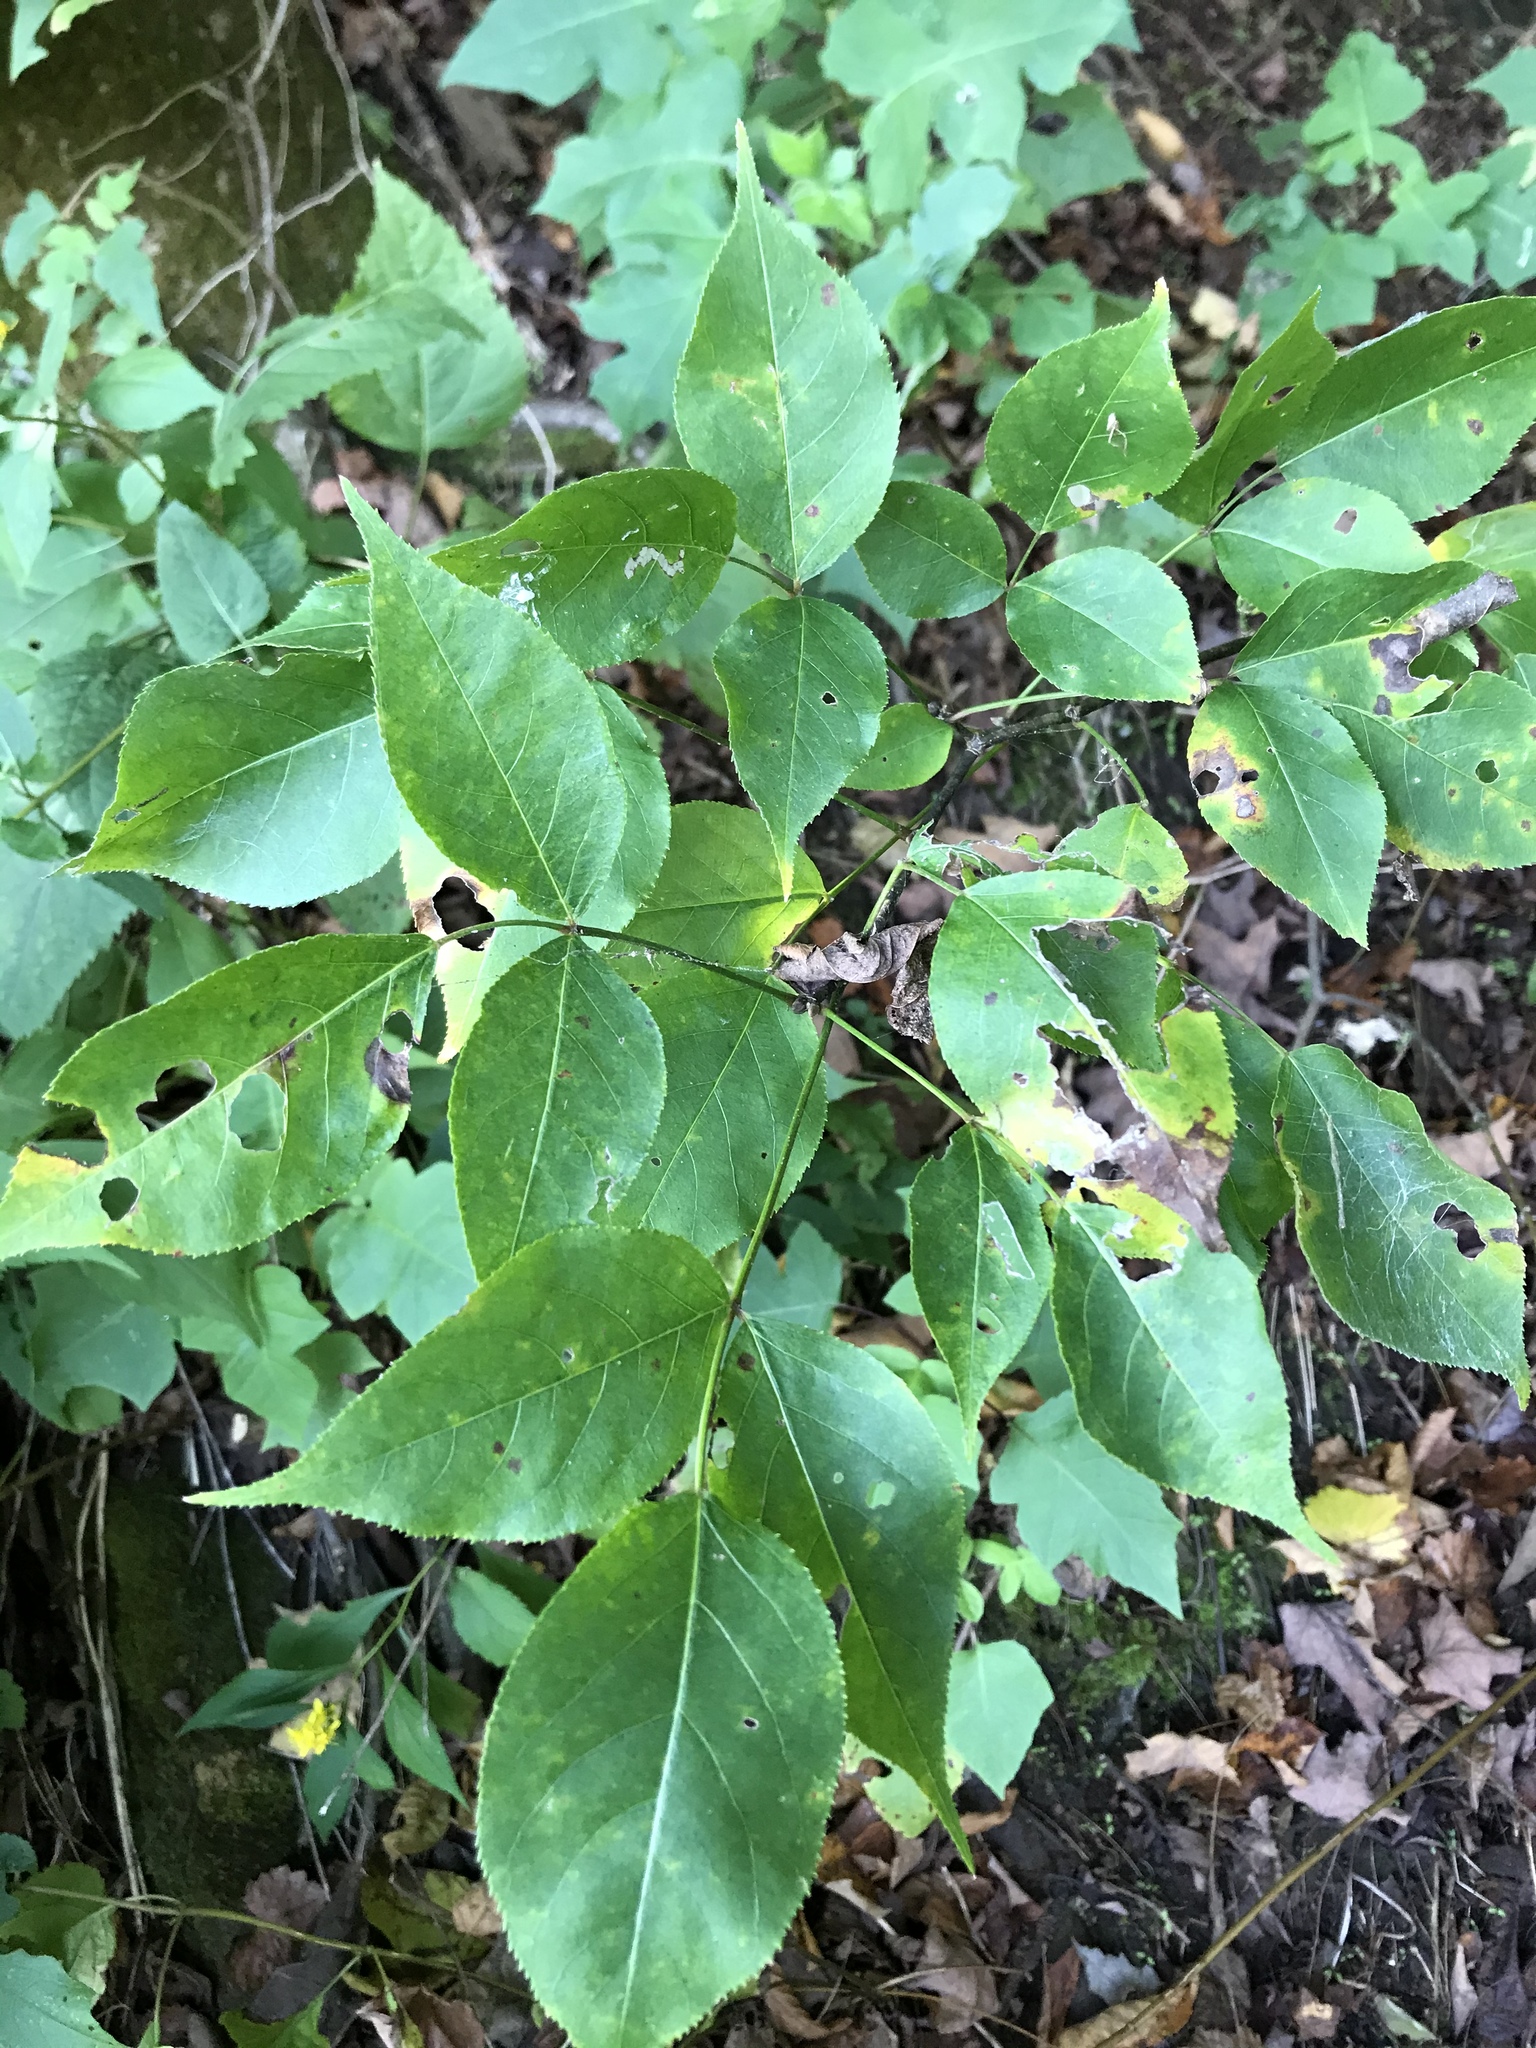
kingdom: Plantae
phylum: Tracheophyta
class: Magnoliopsida
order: Crossosomatales
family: Staphyleaceae
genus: Staphylea
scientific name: Staphylea trifolia
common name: American bladdernut
